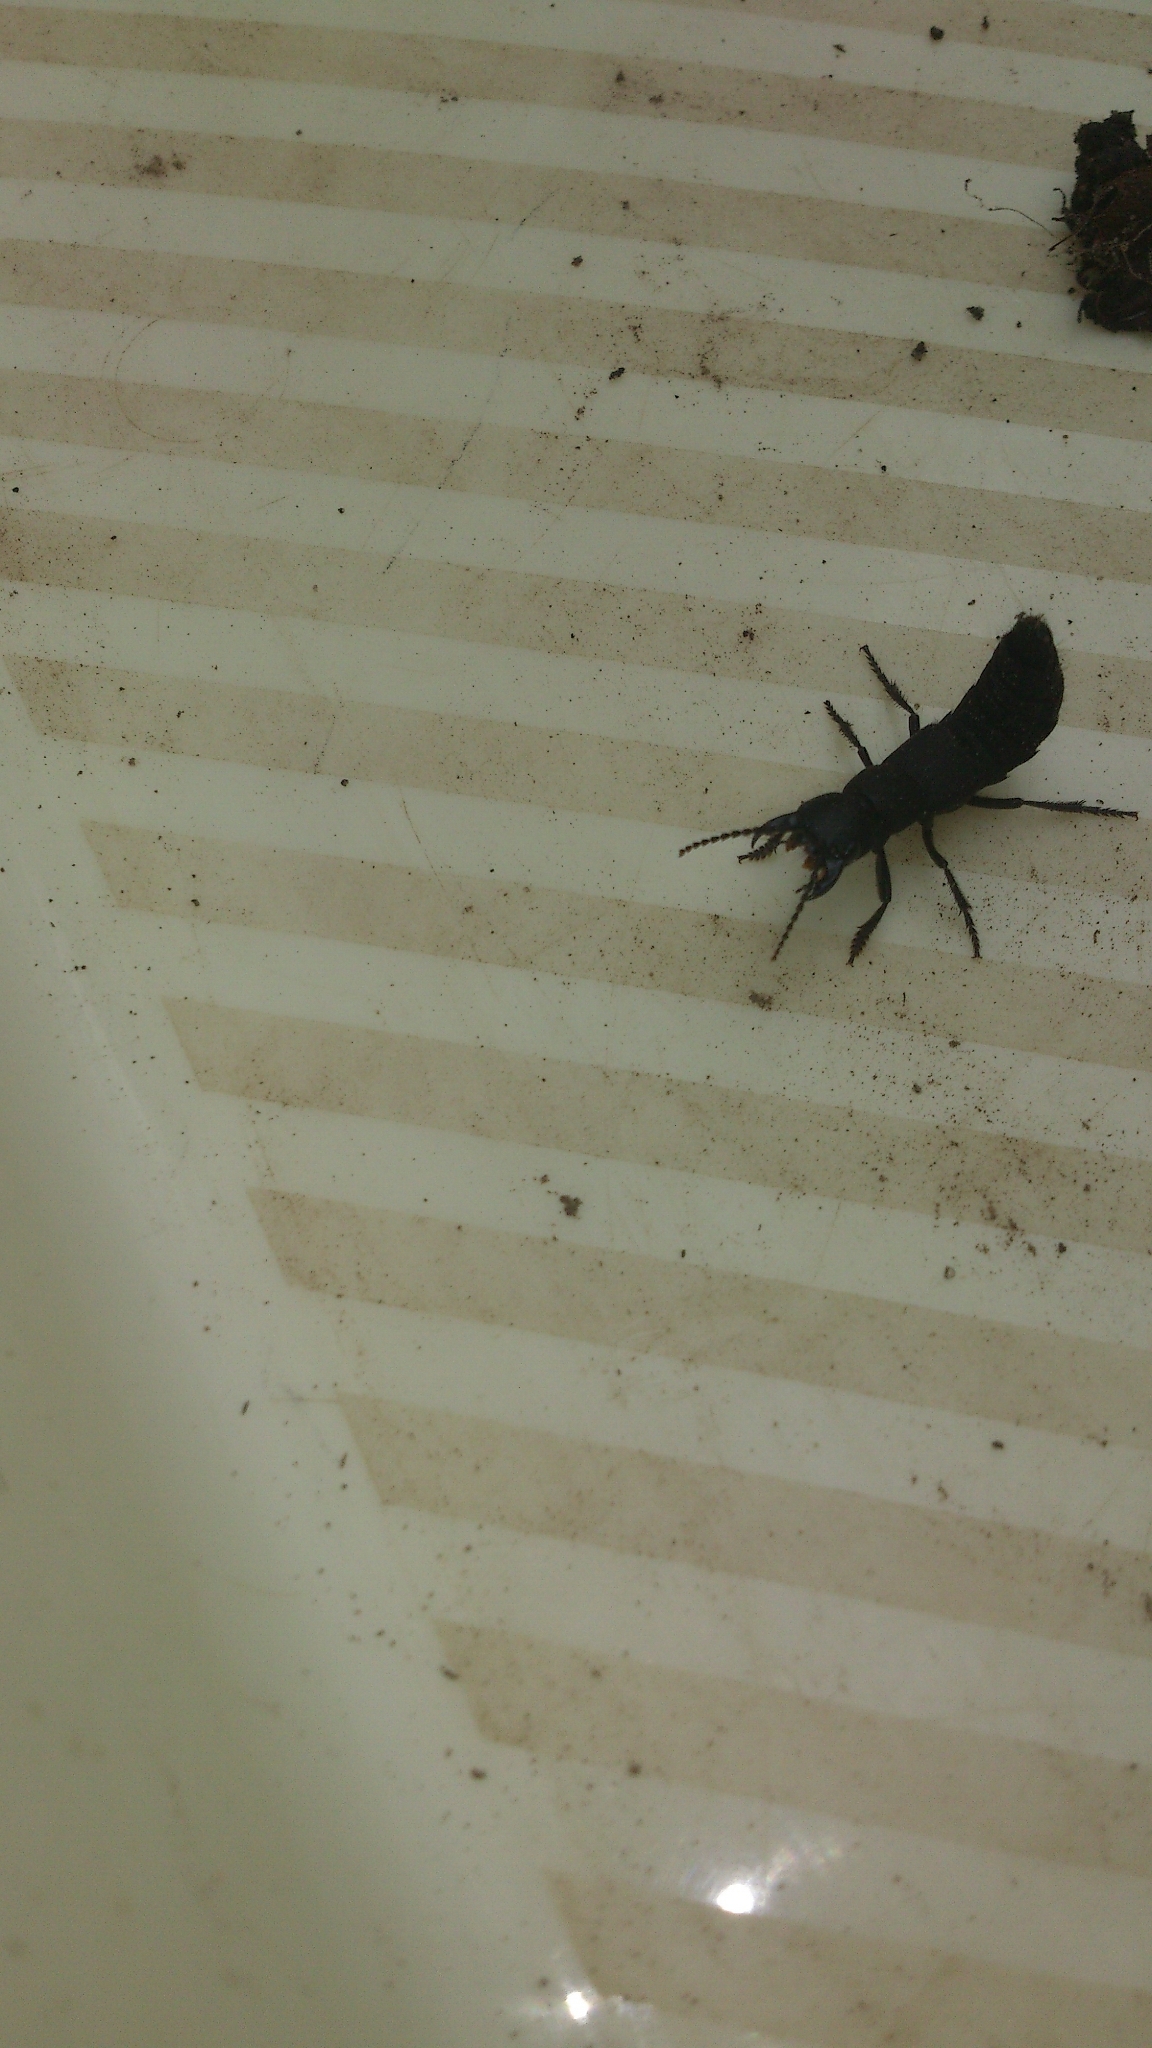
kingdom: Animalia
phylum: Arthropoda
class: Insecta
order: Coleoptera
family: Staphylinidae
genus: Ocypus
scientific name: Ocypus olens
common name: Devil's coach-horse
